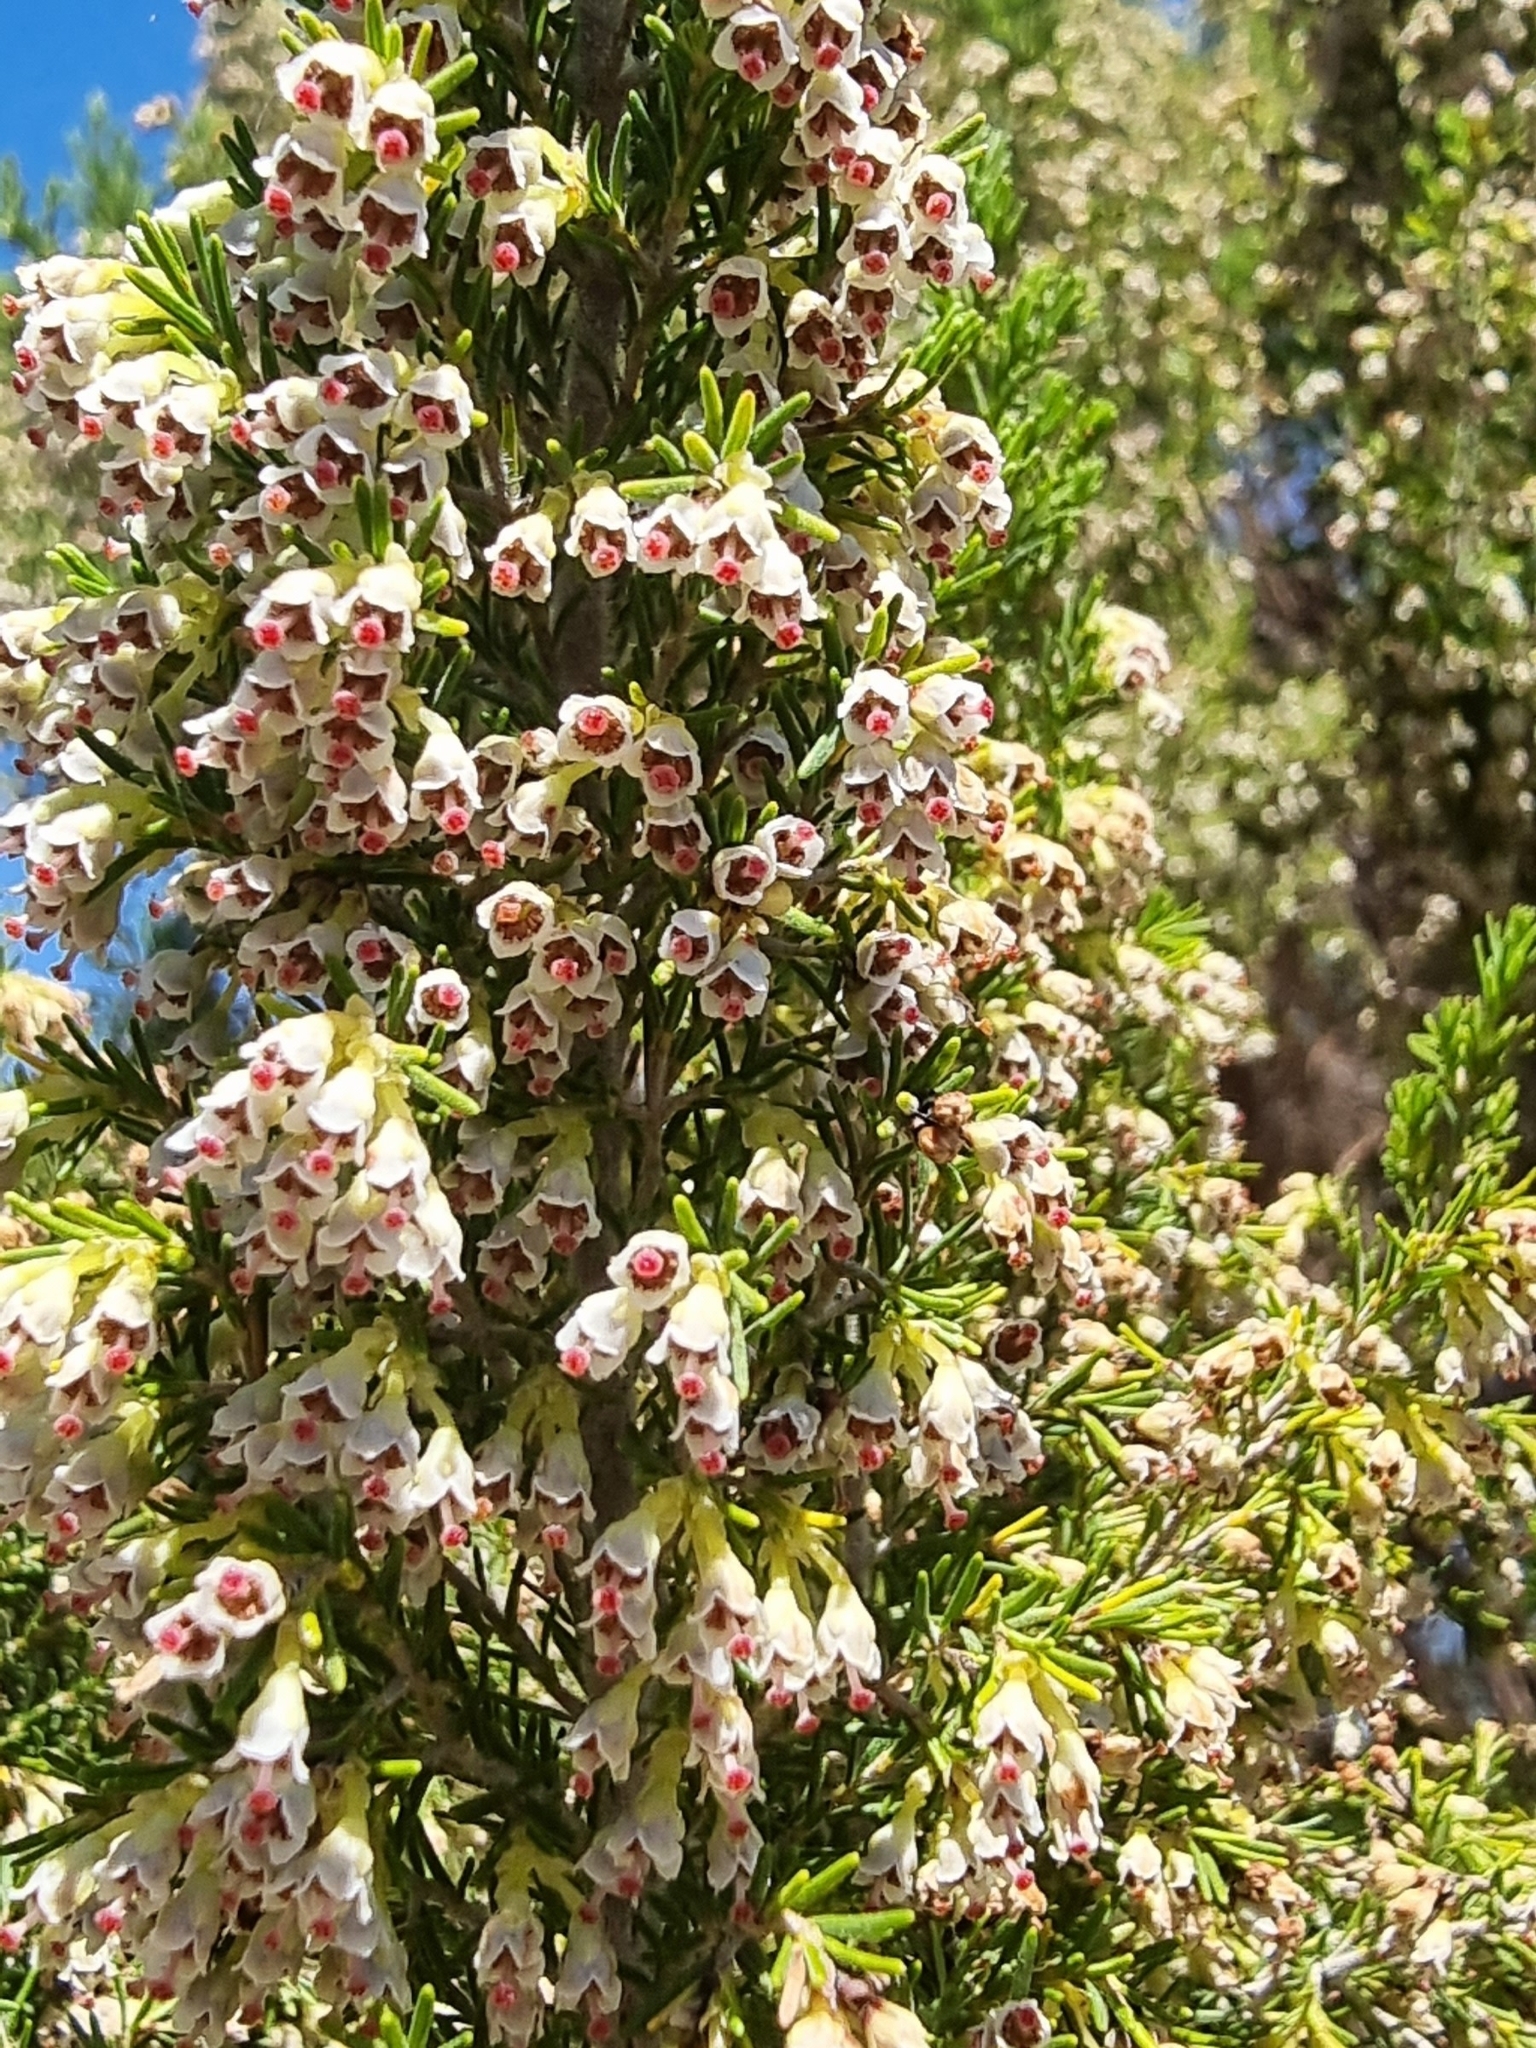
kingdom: Plantae
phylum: Tracheophyta
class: Magnoliopsida
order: Ericales
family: Ericaceae
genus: Erica
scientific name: Erica canariensis
